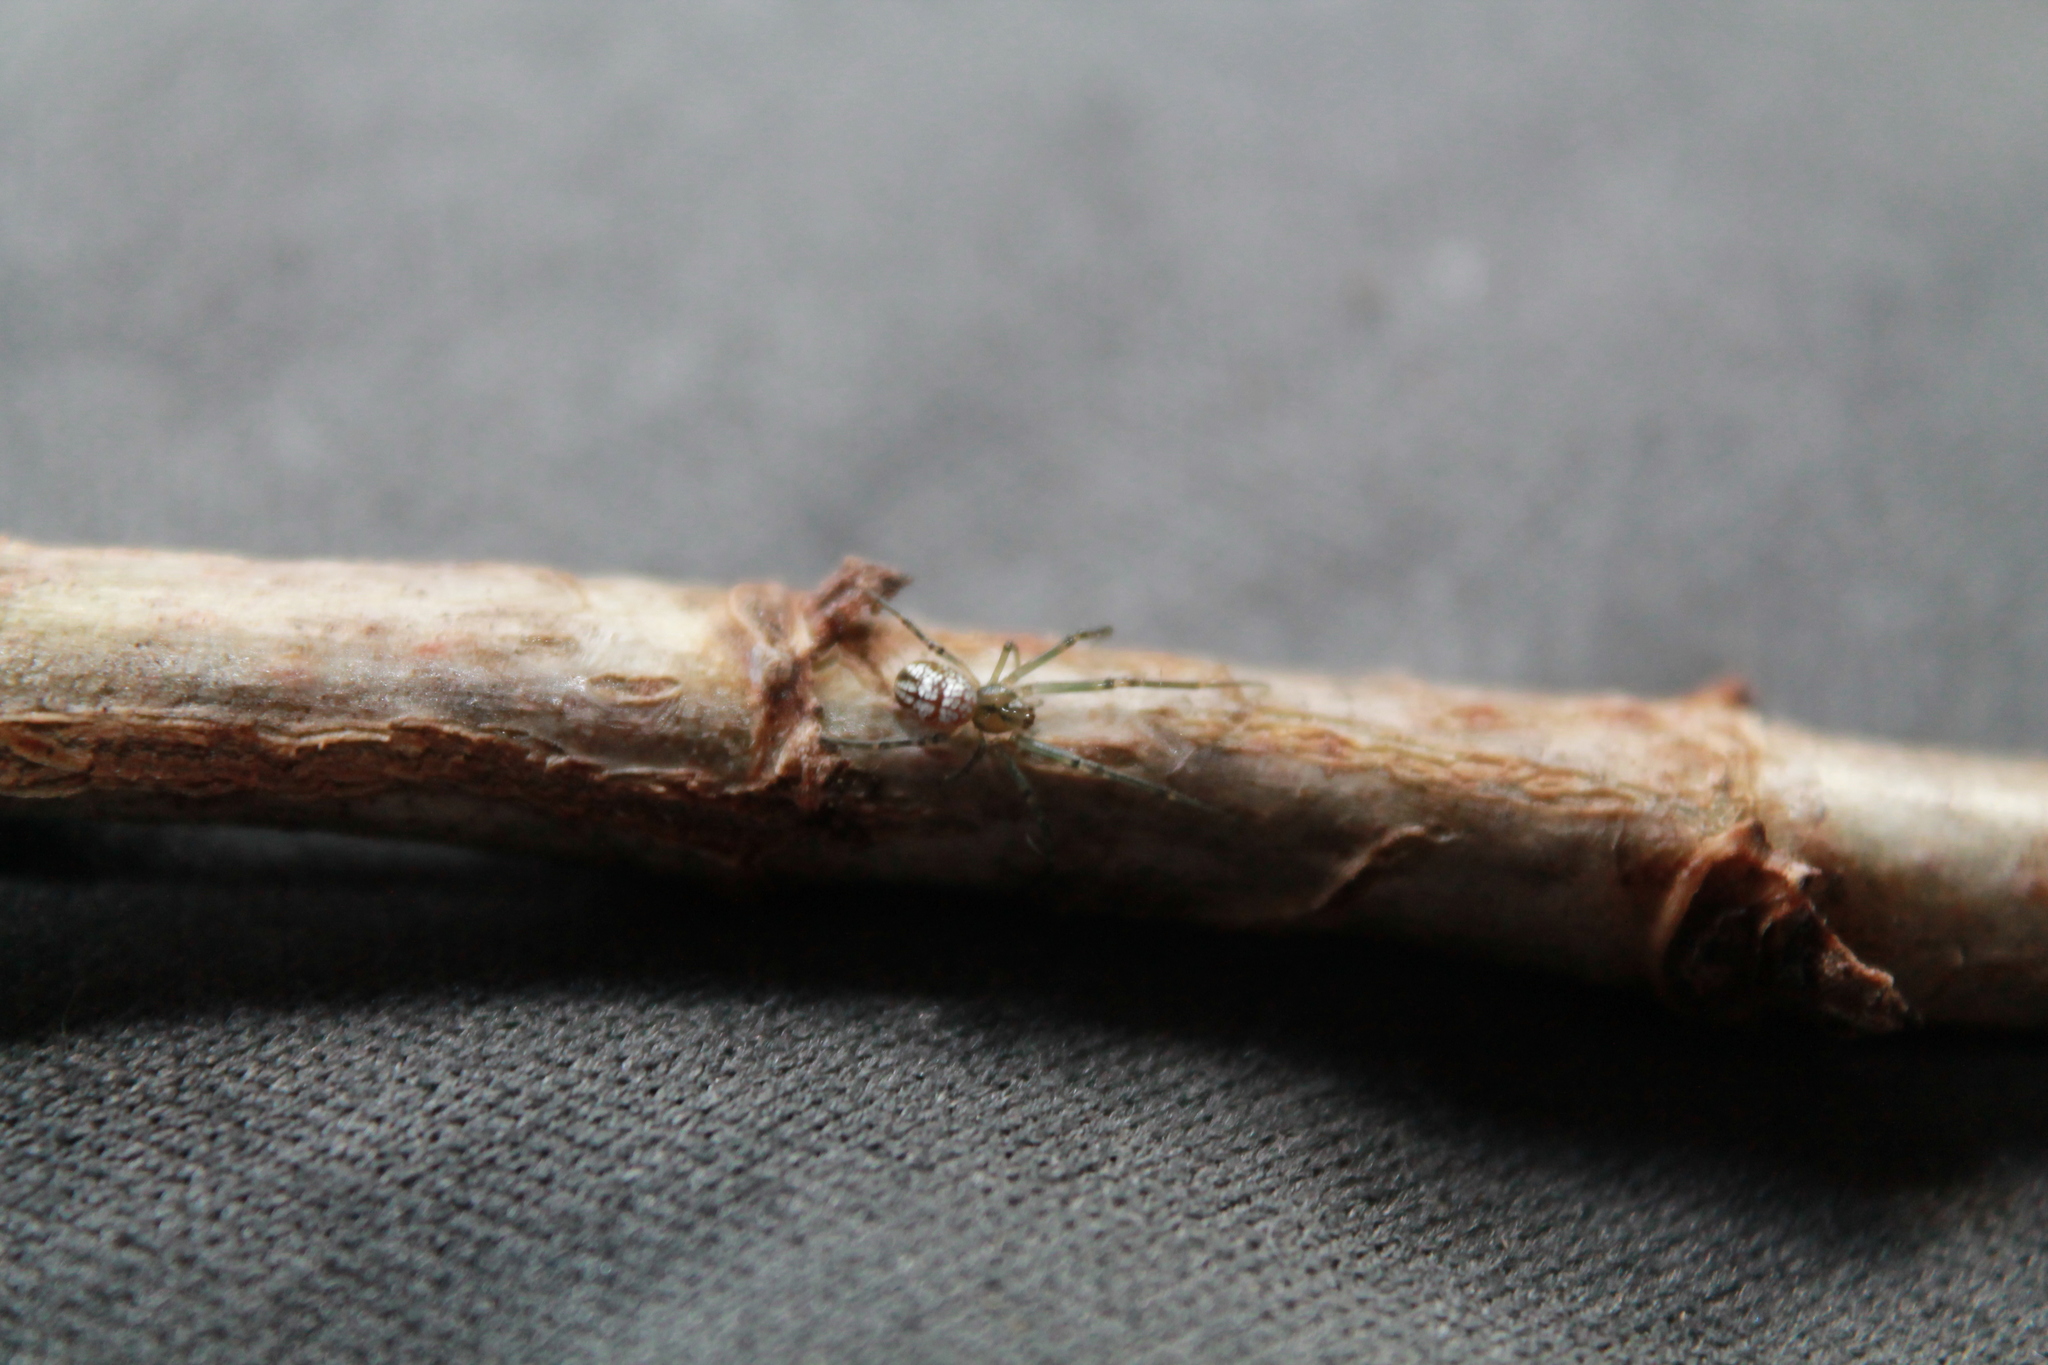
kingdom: Animalia
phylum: Arthropoda
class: Arachnida
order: Araneae
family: Tetragnathidae
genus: Leucauge
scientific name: Leucauge dromedaria
